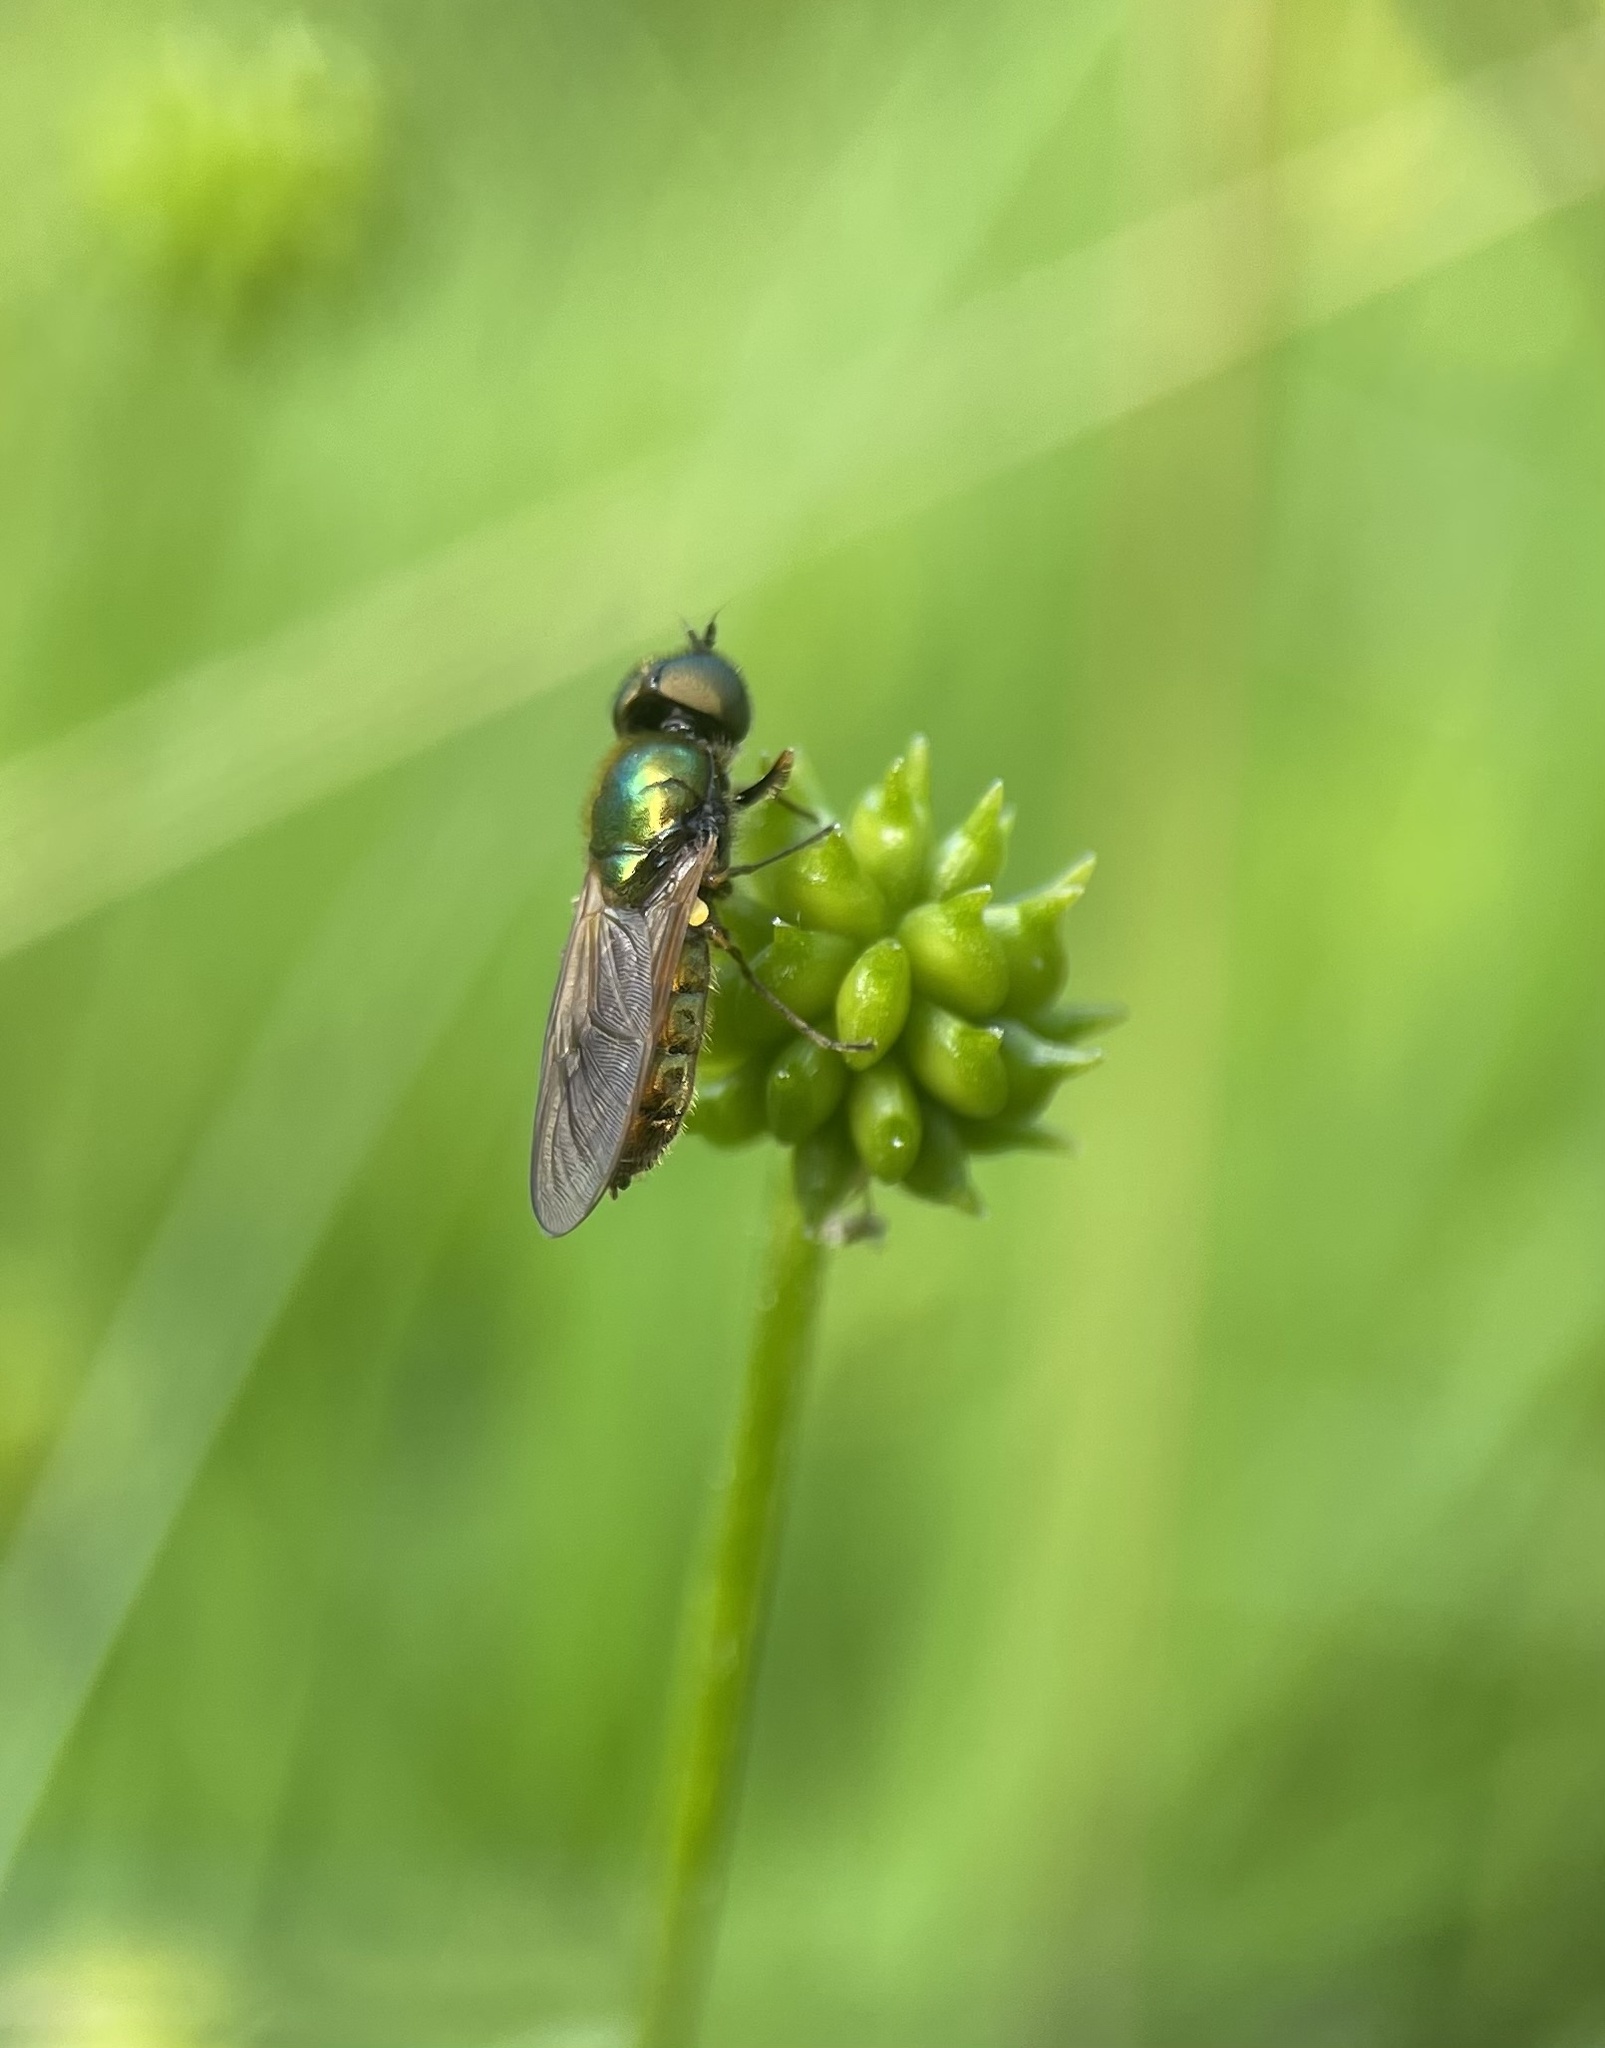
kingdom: Animalia
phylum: Arthropoda
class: Insecta
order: Diptera
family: Stratiomyidae
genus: Chloromyia
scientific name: Chloromyia formosa
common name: Soldier fly
